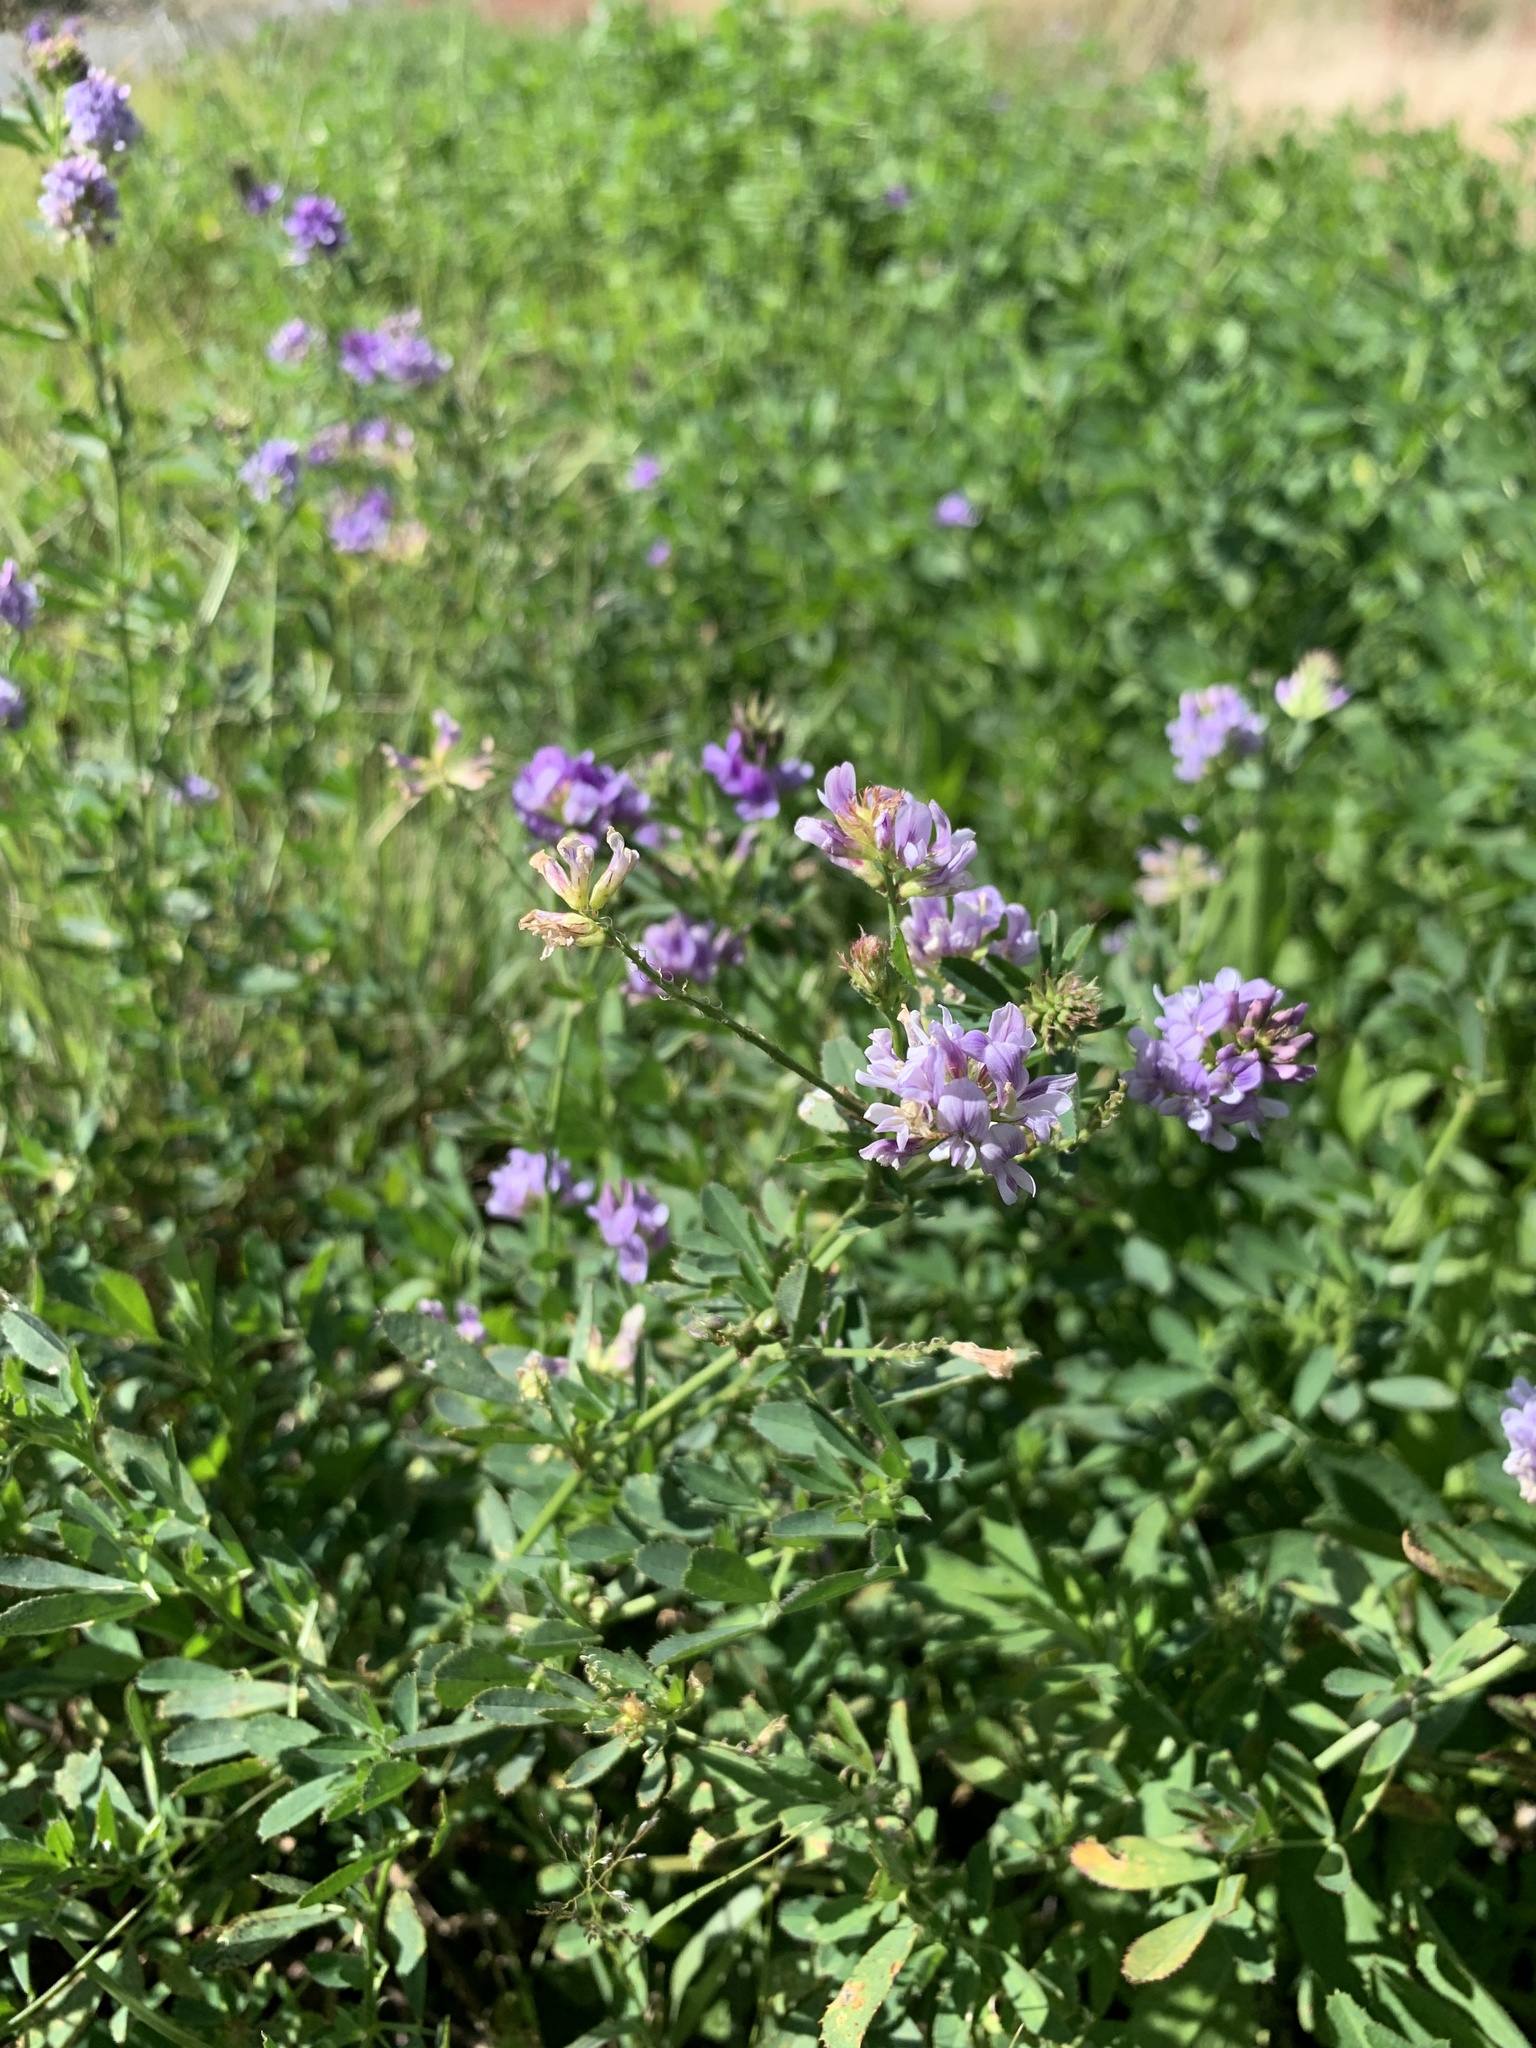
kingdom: Plantae
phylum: Tracheophyta
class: Magnoliopsida
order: Fabales
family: Fabaceae
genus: Medicago
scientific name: Medicago sativa
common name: Alfalfa
